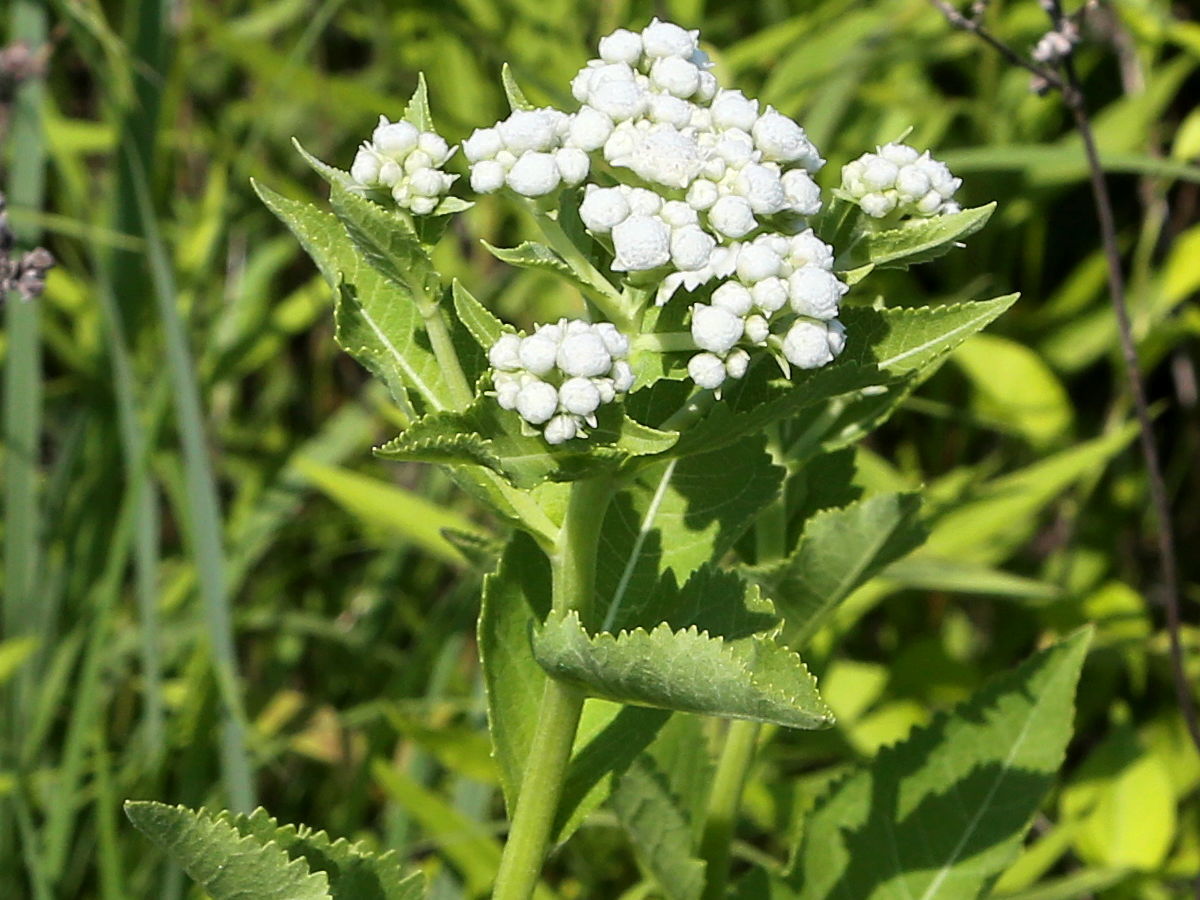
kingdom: Plantae
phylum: Tracheophyta
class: Magnoliopsida
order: Asterales
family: Asteraceae
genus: Parthenium
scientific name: Parthenium integrifolium
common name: American feverfew
